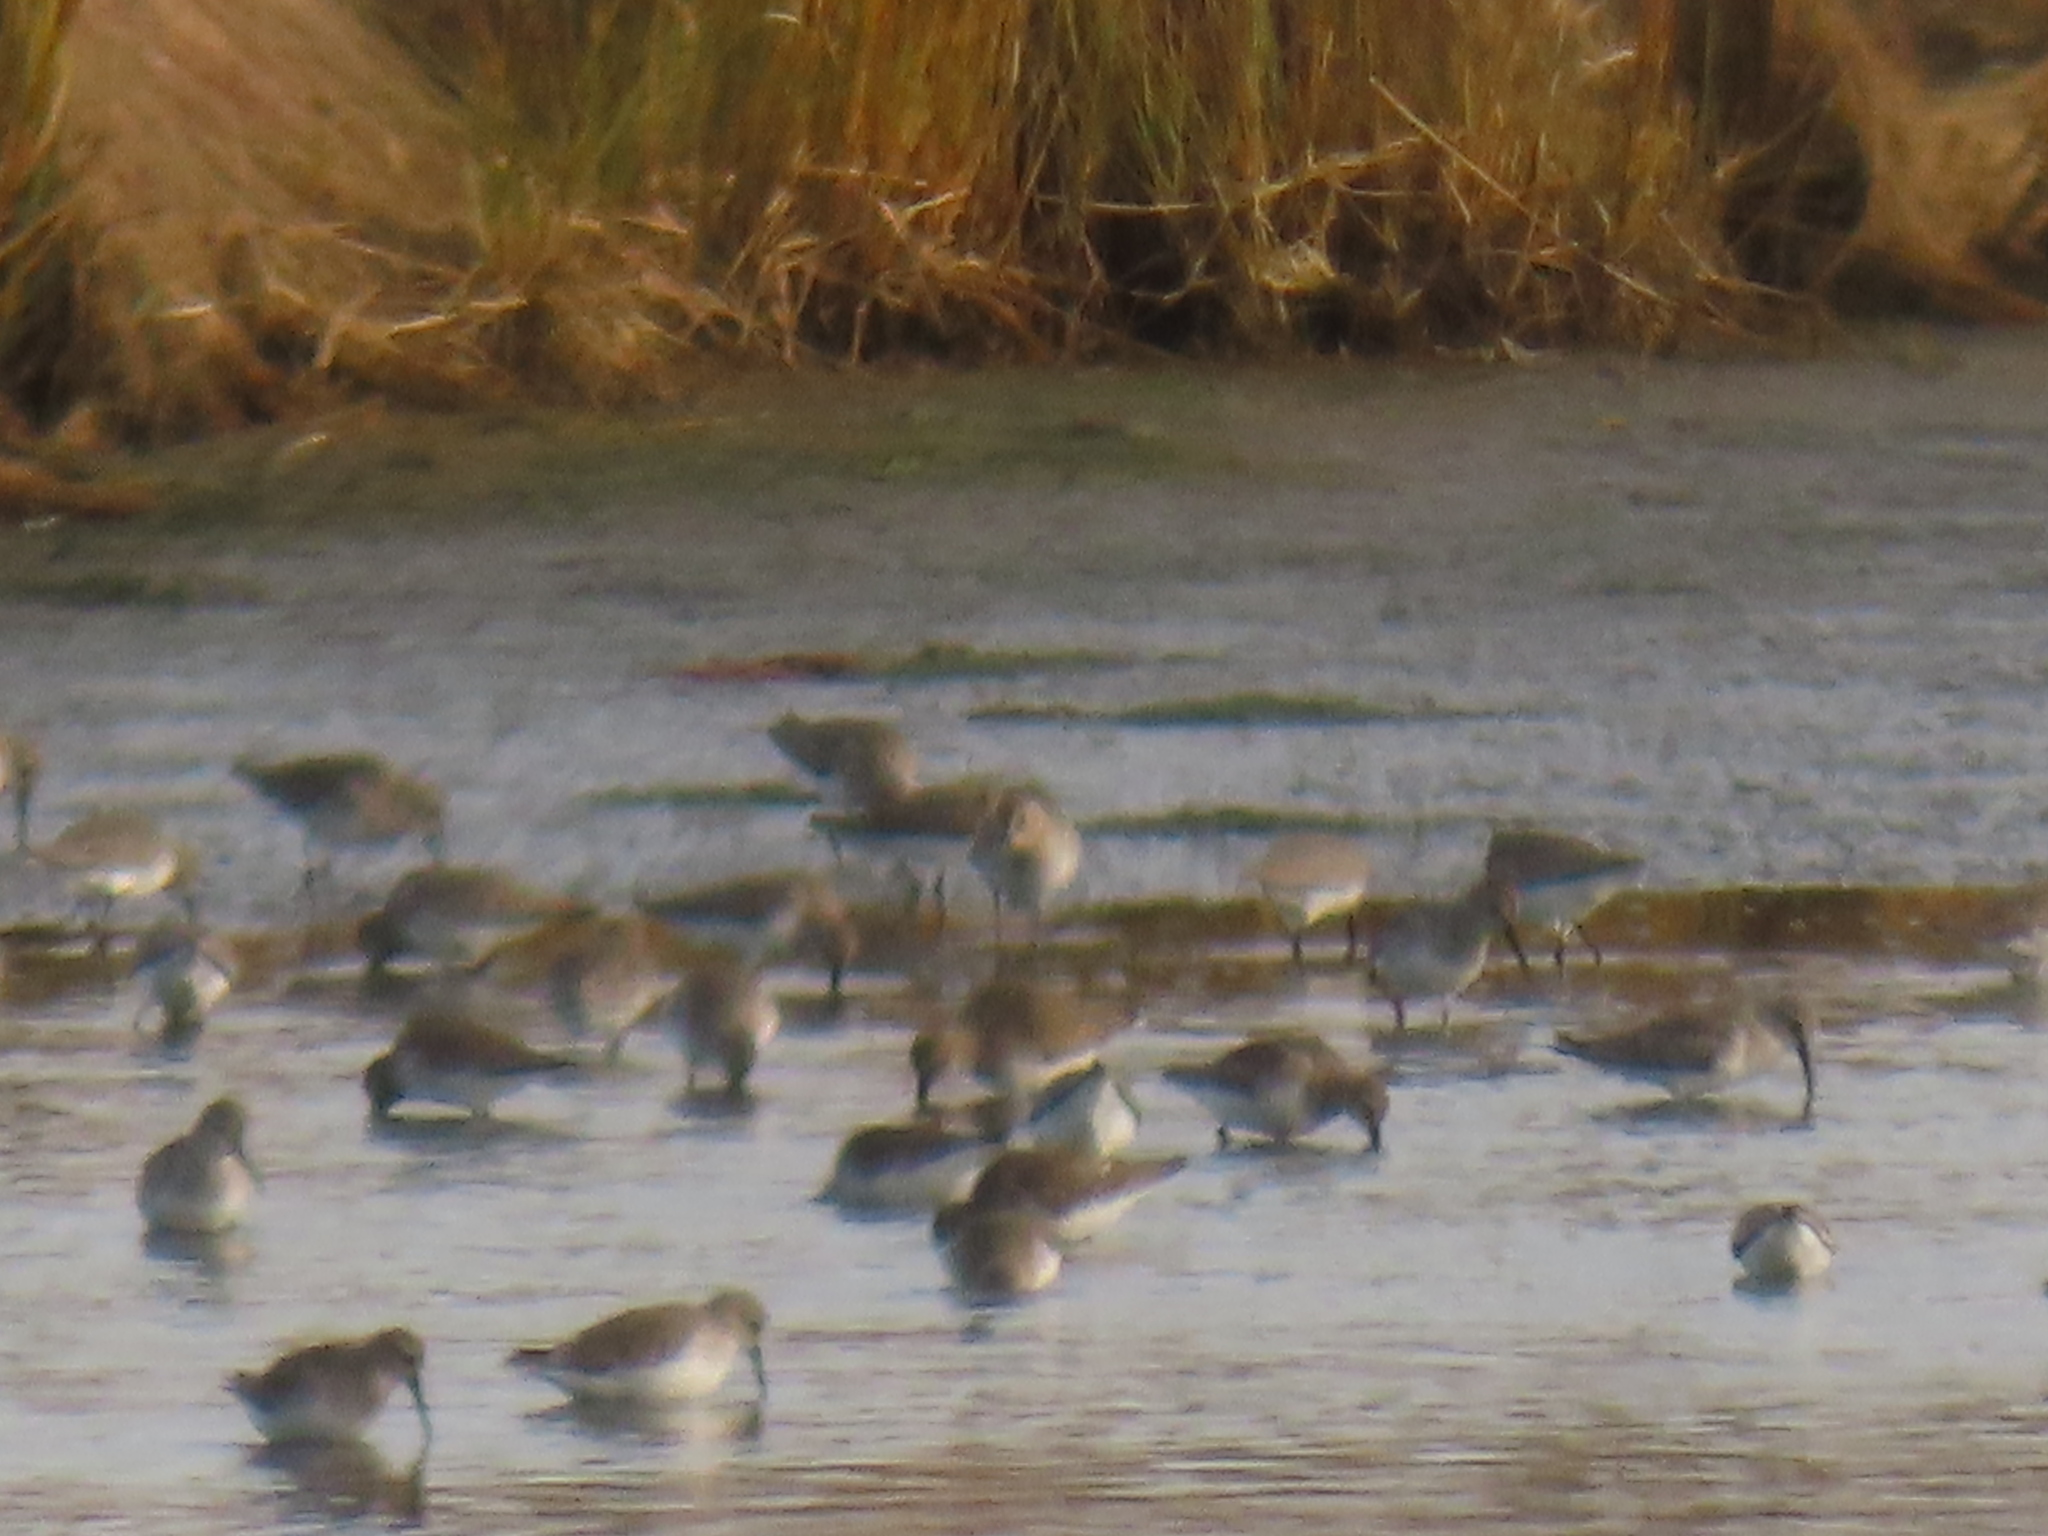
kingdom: Animalia
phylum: Chordata
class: Aves
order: Charadriiformes
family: Scolopacidae
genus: Calidris
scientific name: Calidris alpina
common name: Dunlin
